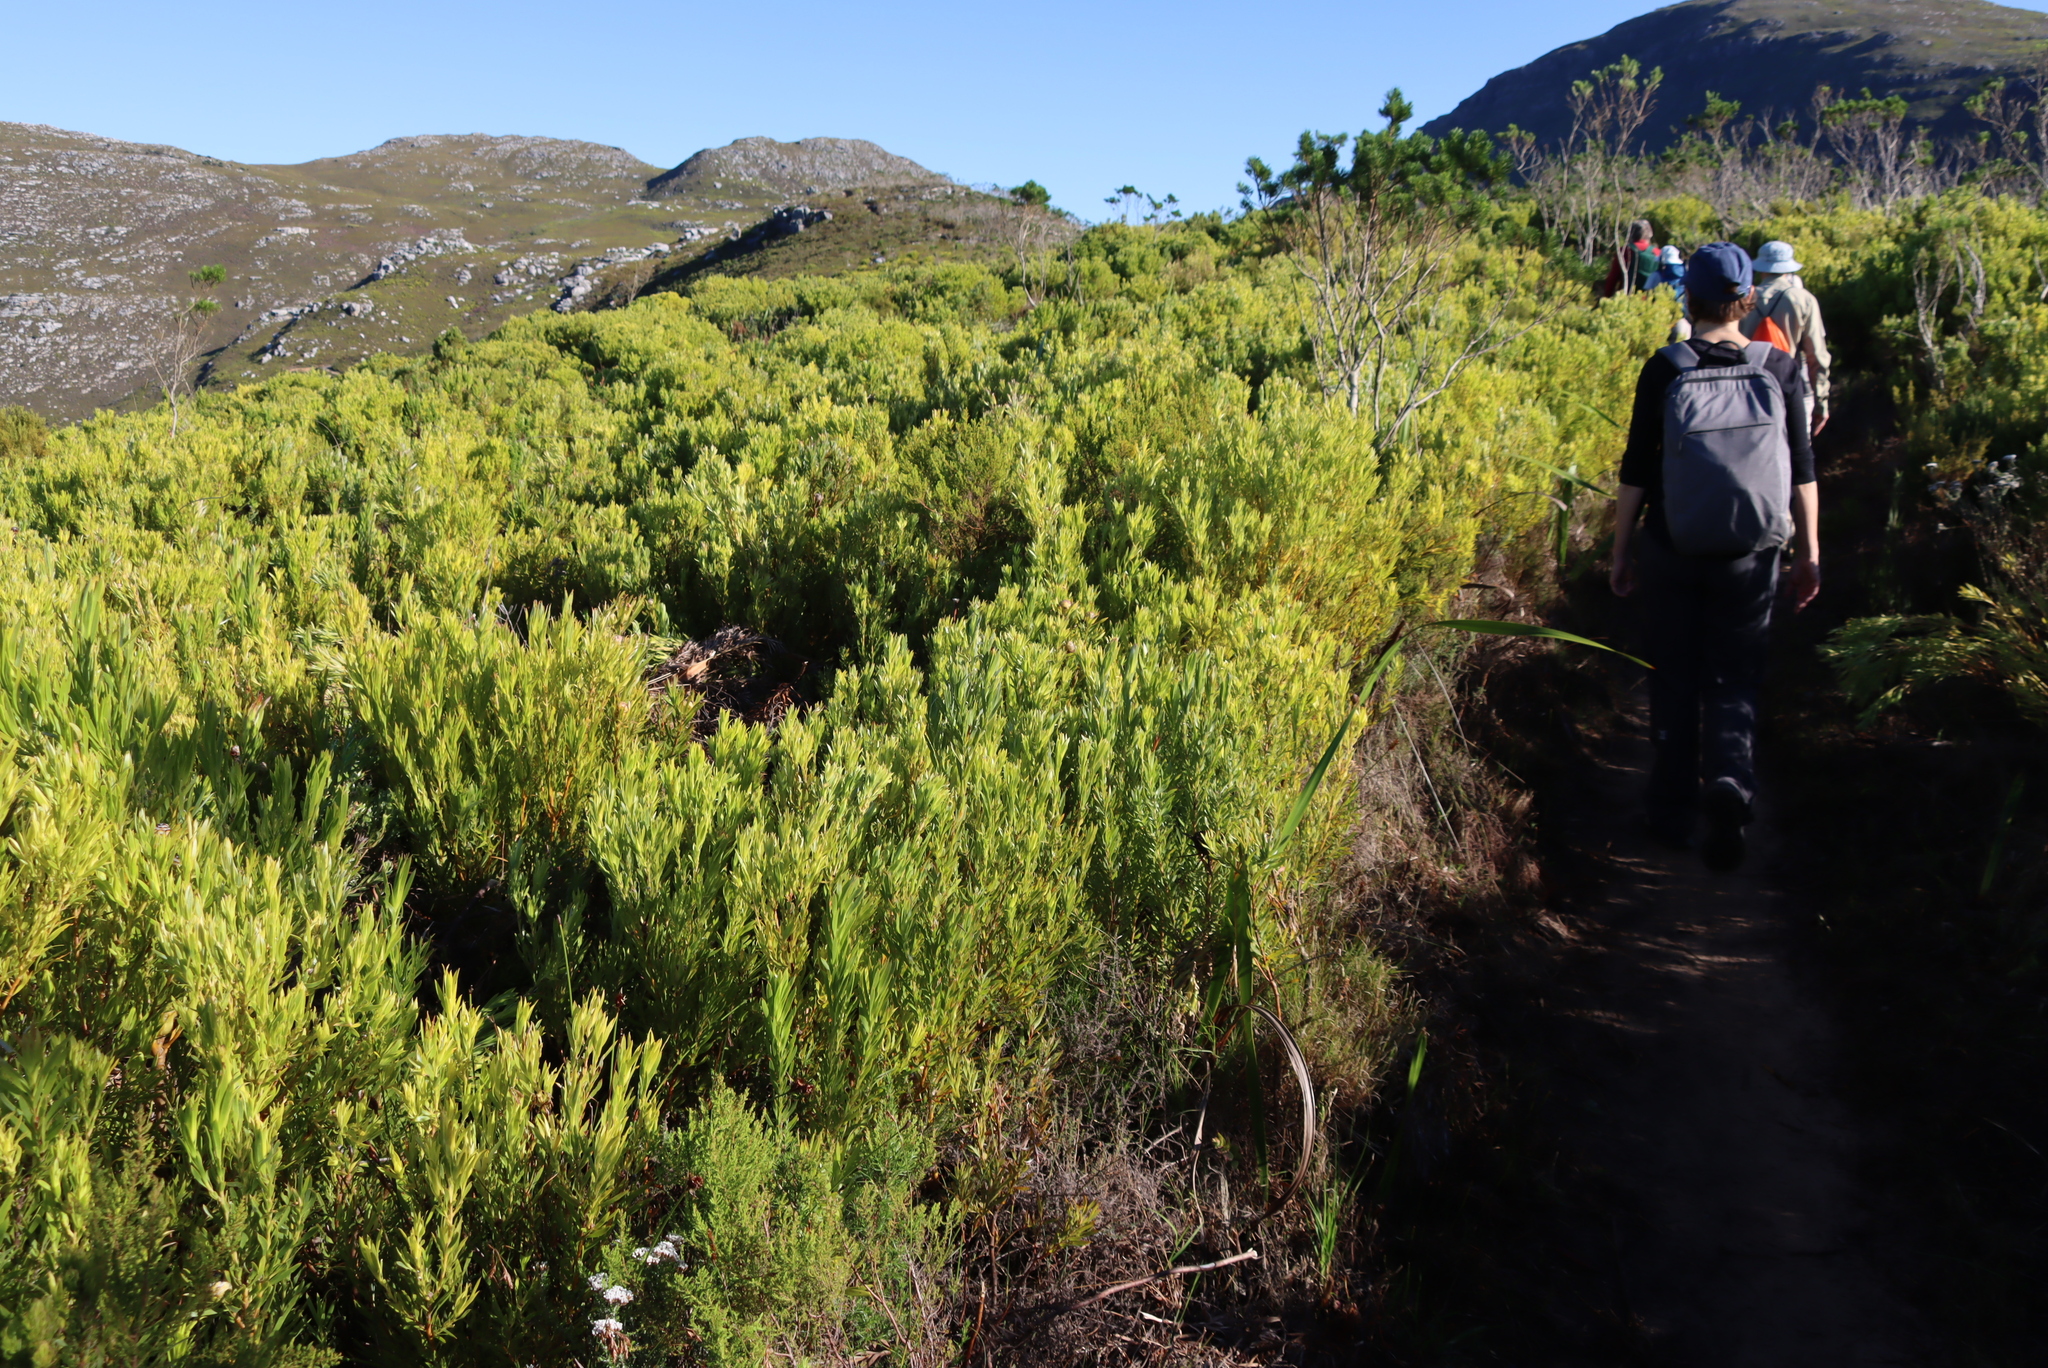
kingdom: Plantae
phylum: Tracheophyta
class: Magnoliopsida
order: Proteales
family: Proteaceae
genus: Leucadendron
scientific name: Leucadendron xanthoconus
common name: Sickle-leaf conebush
